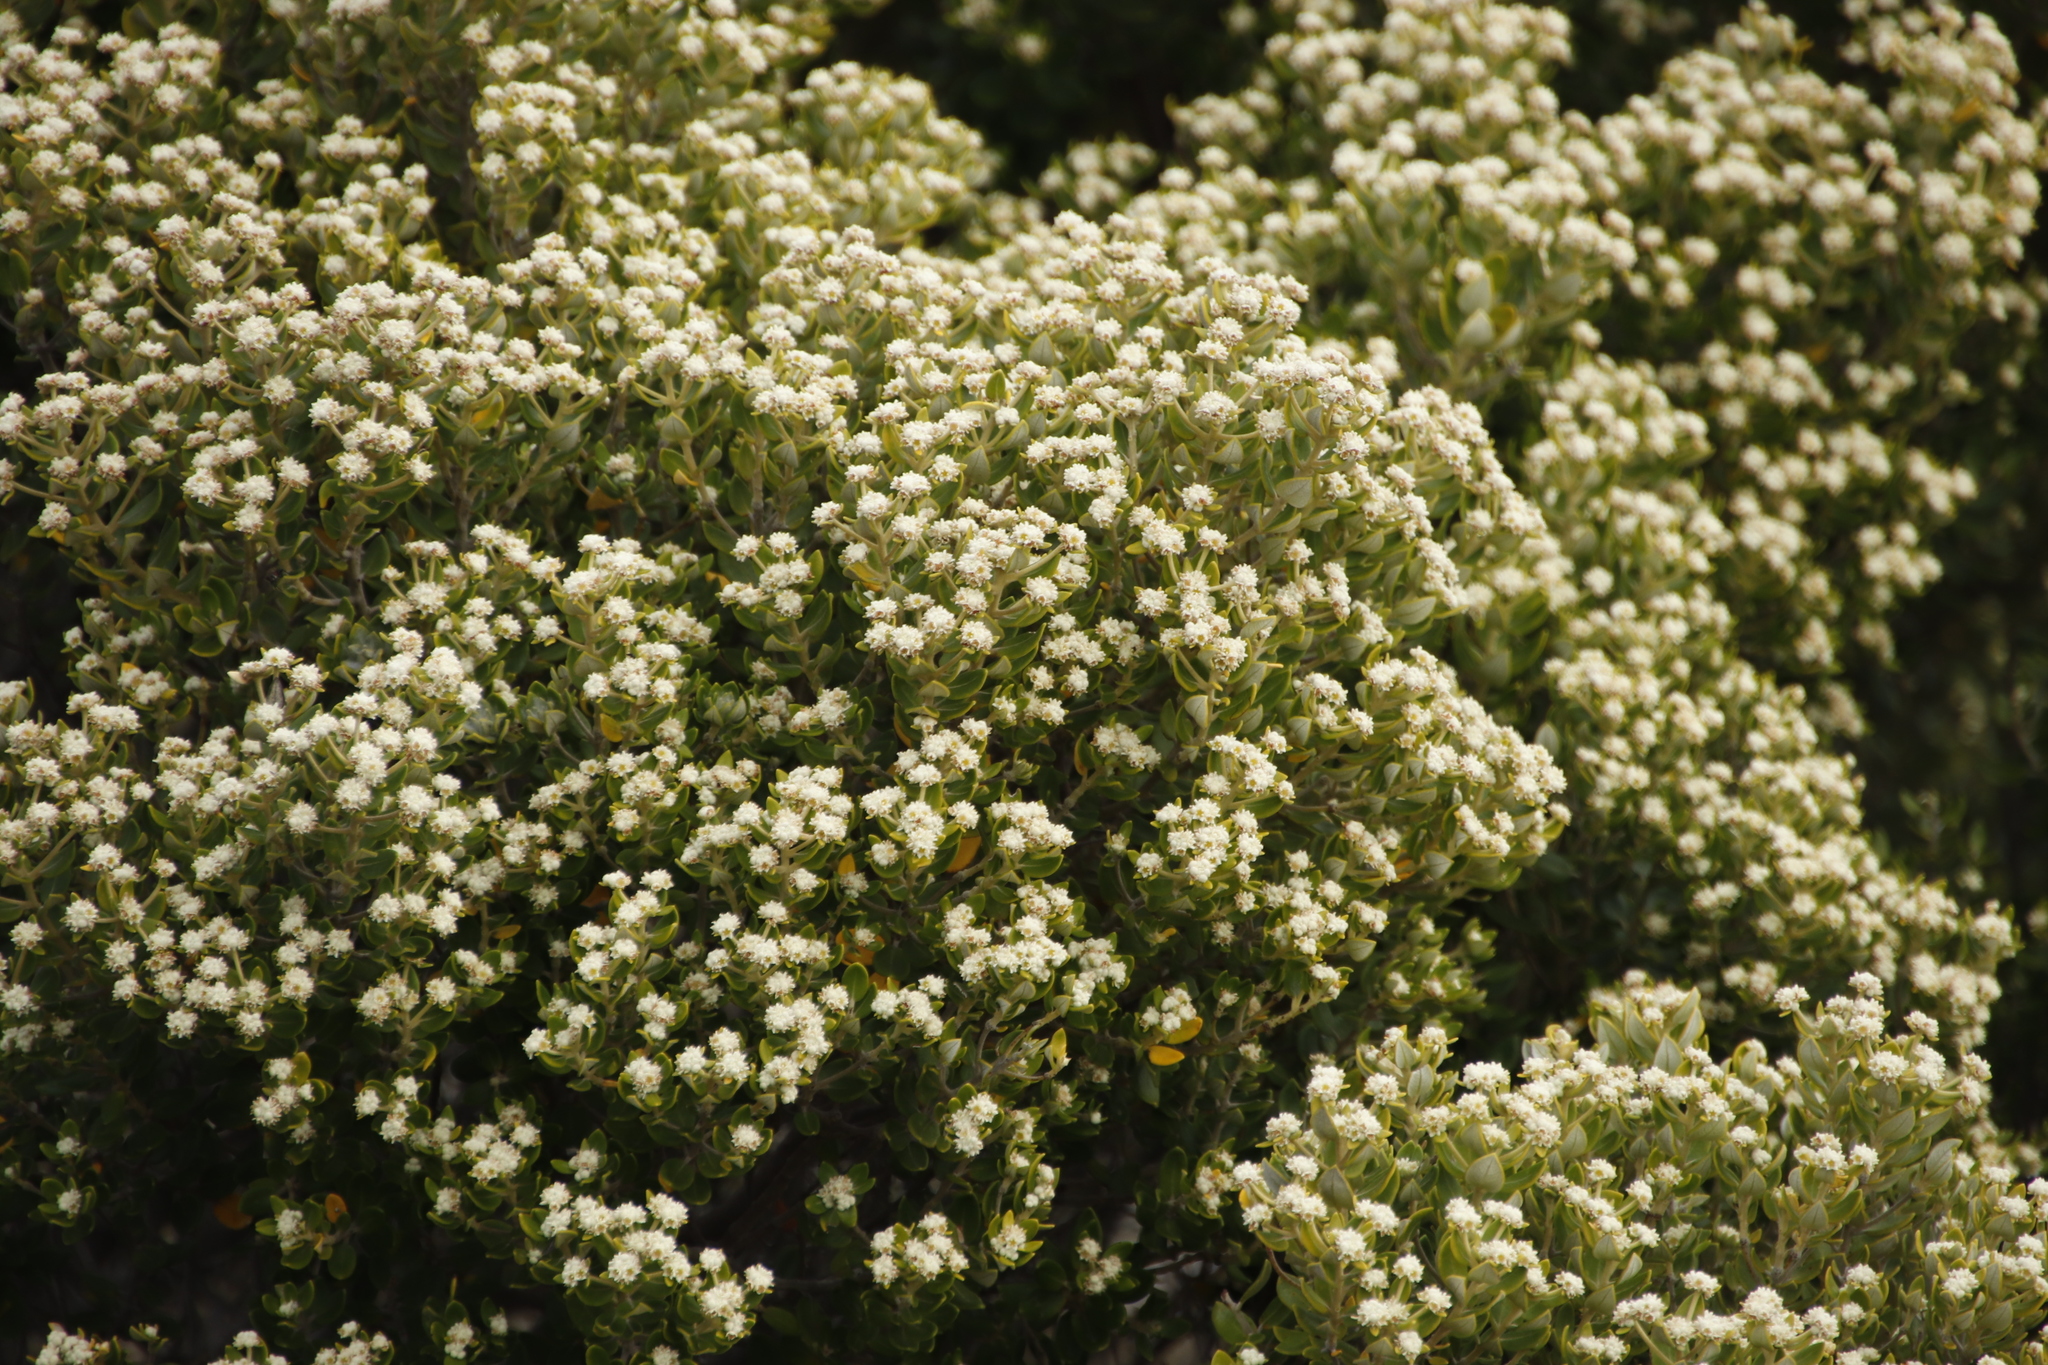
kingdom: Plantae
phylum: Tracheophyta
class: Magnoliopsida
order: Rosales
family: Rhamnaceae
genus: Phylica
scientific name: Phylica buxifolia
